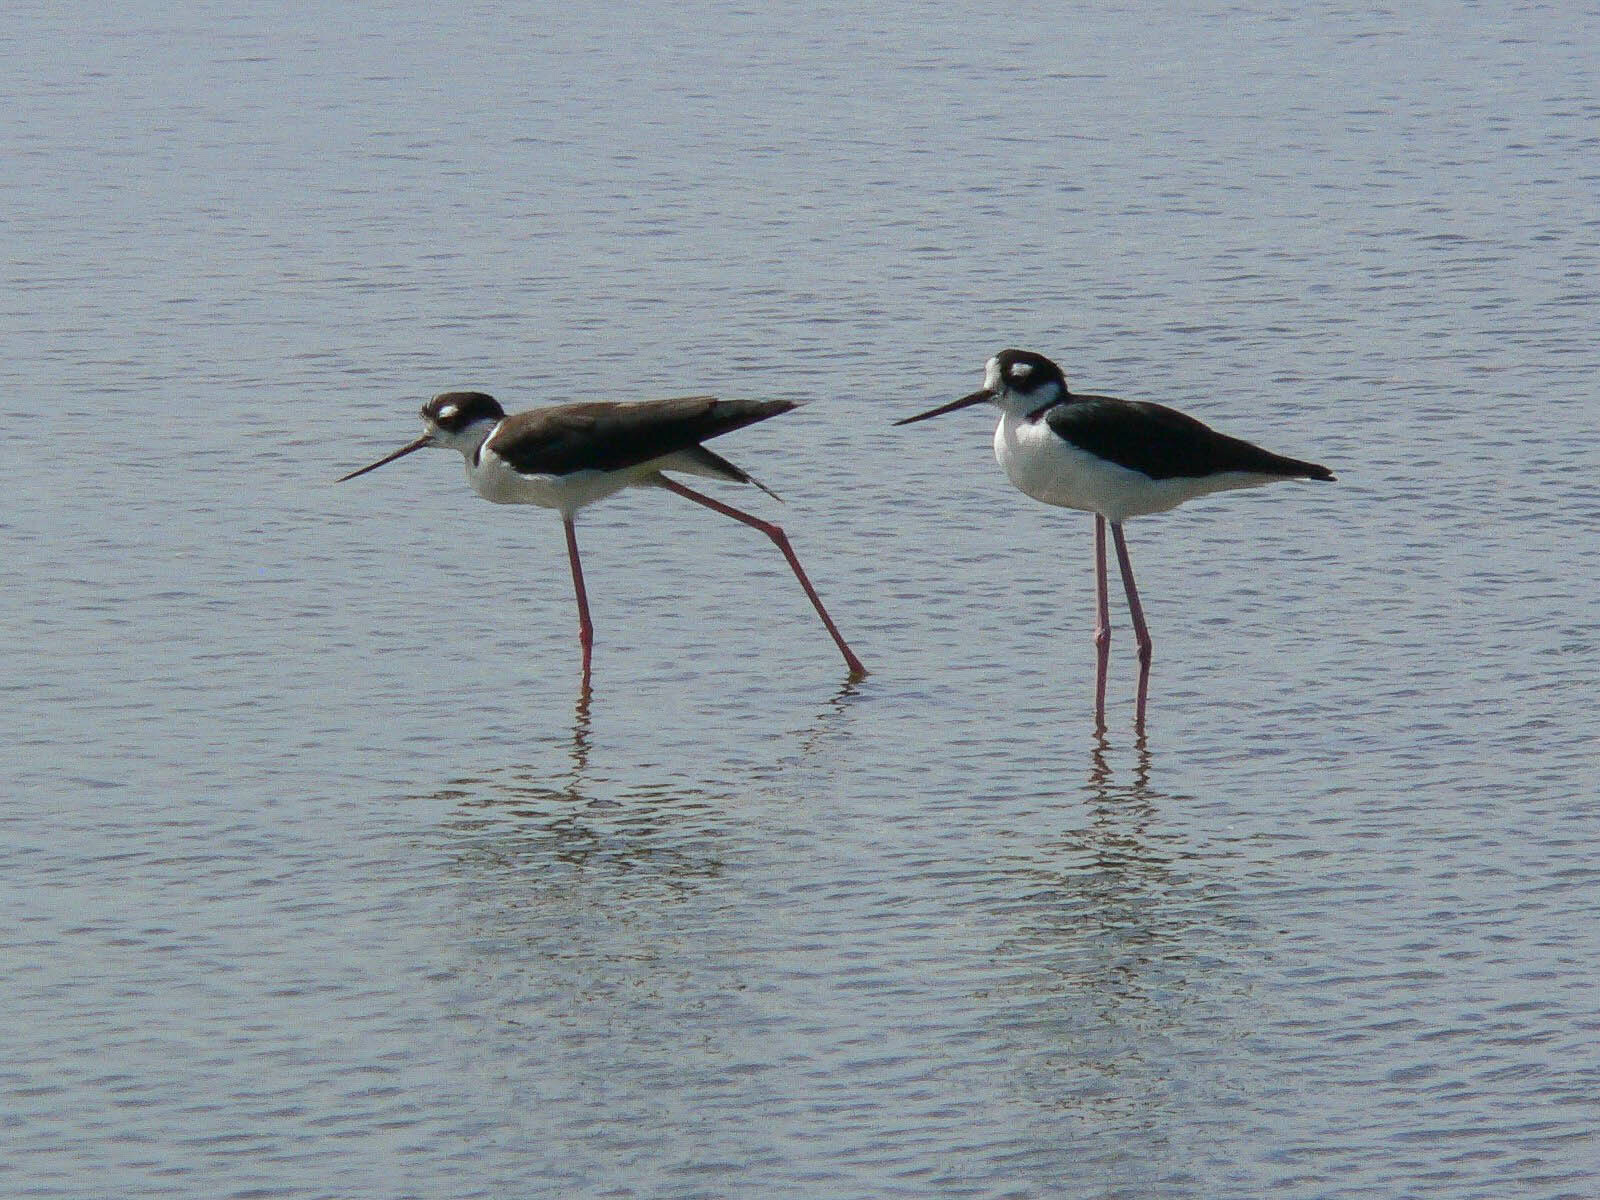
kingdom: Animalia
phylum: Chordata
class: Aves
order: Charadriiformes
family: Recurvirostridae
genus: Himantopus
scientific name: Himantopus mexicanus
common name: Black-necked stilt
